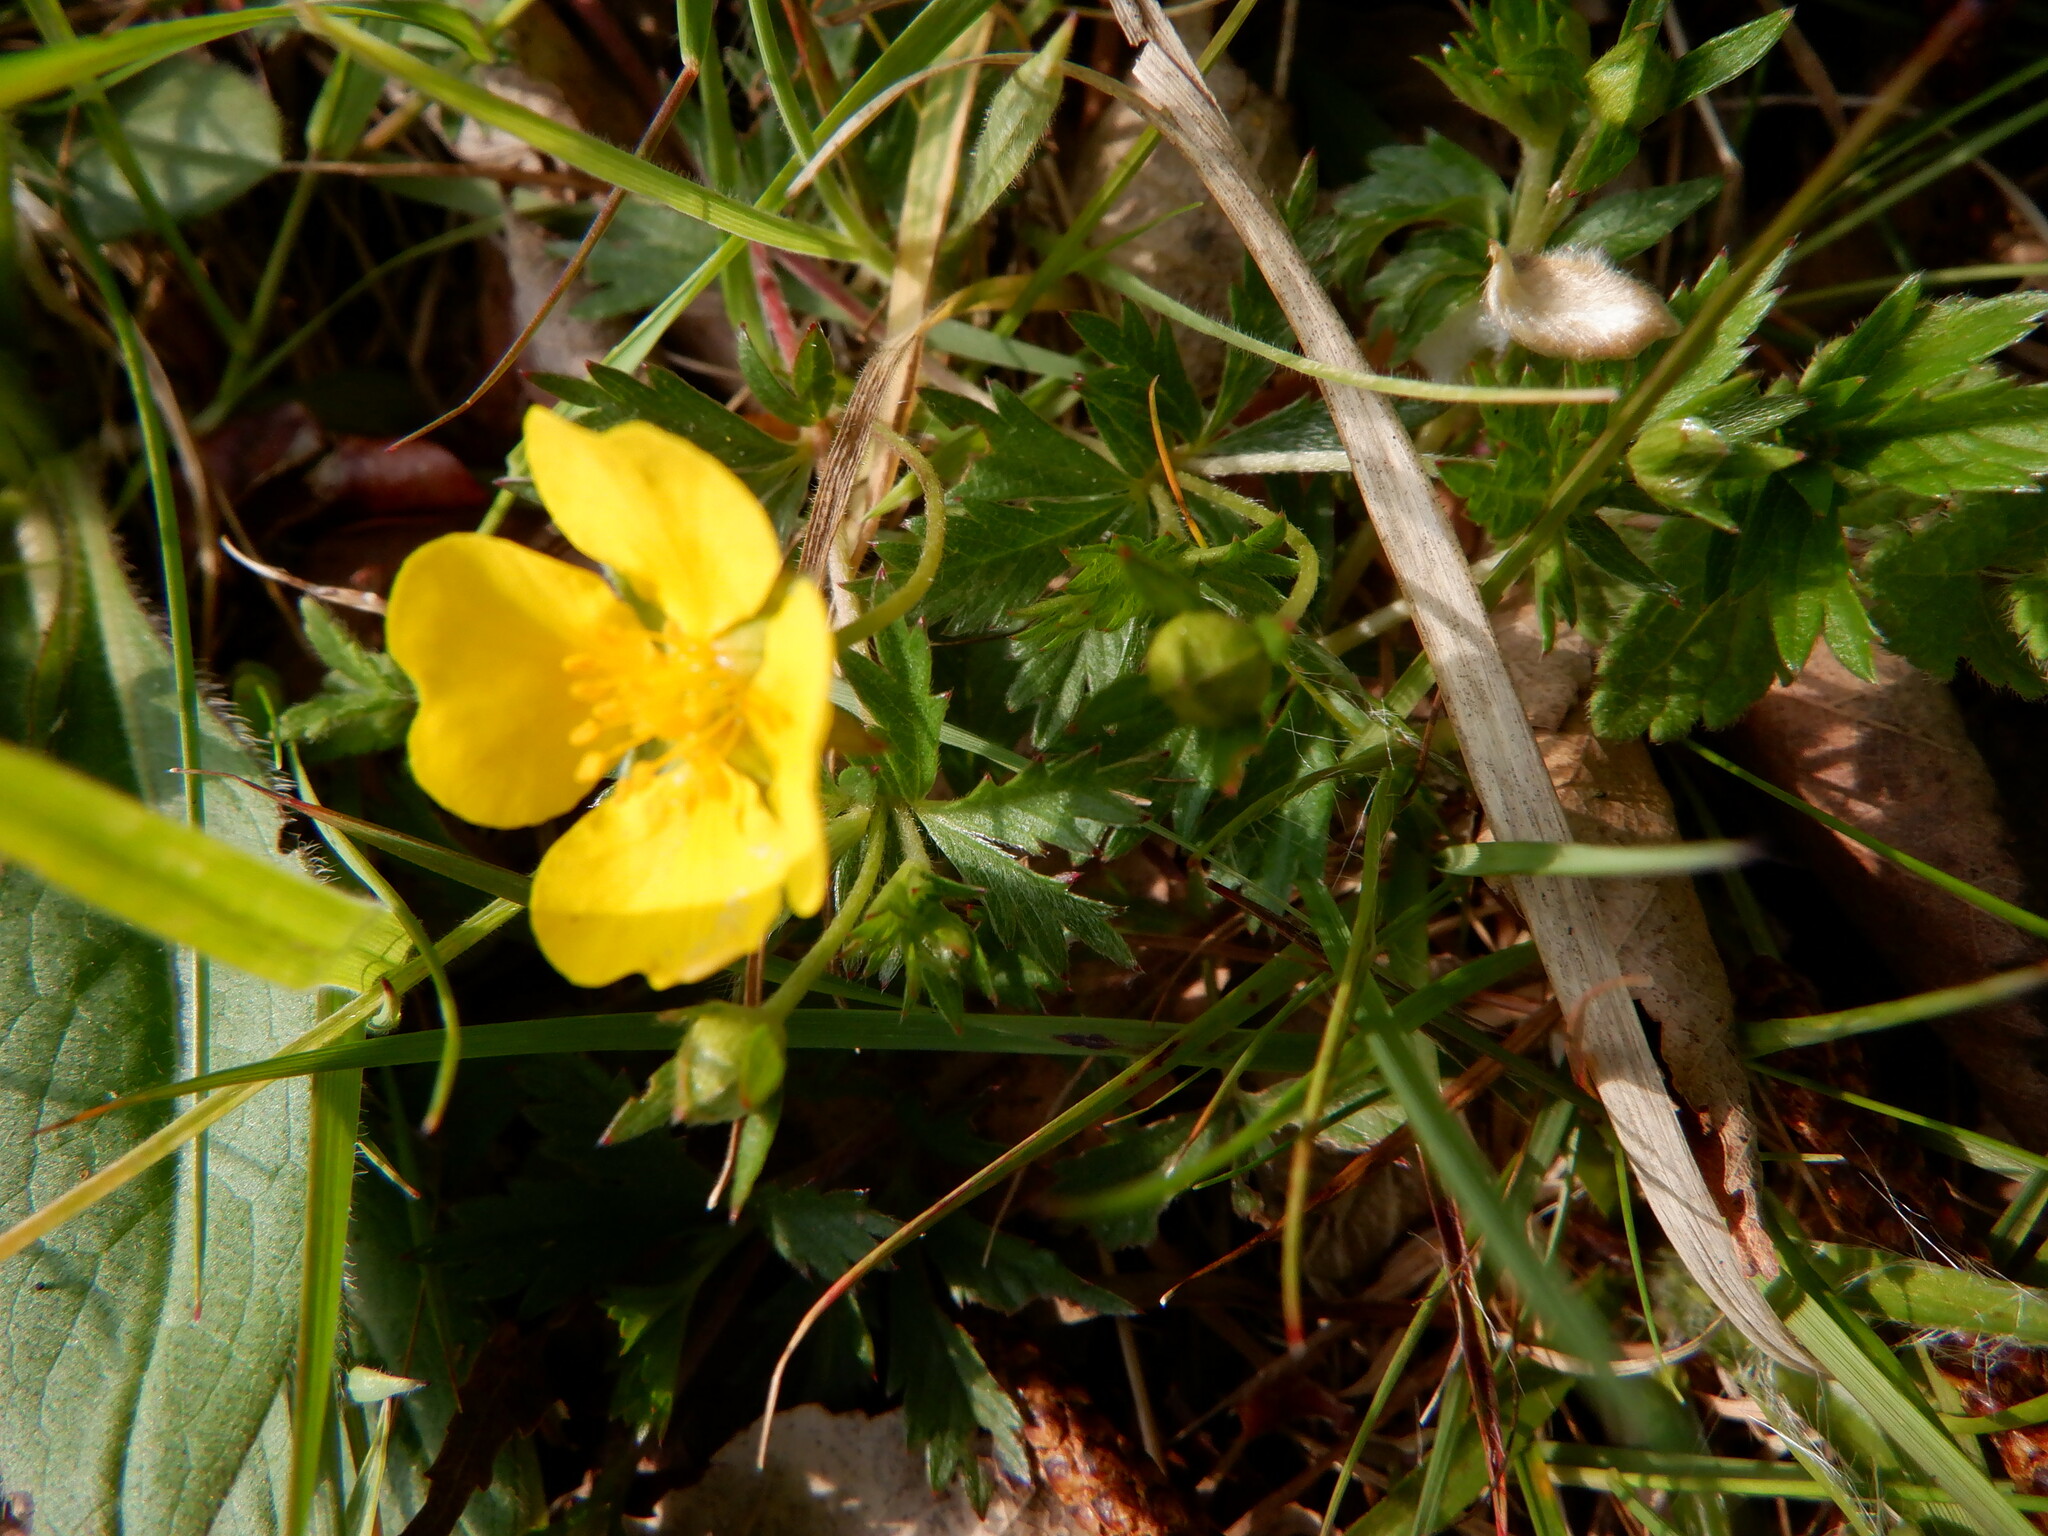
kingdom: Plantae
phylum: Tracheophyta
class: Magnoliopsida
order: Rosales
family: Rosaceae
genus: Potentilla
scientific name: Potentilla erecta
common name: Tormentil
